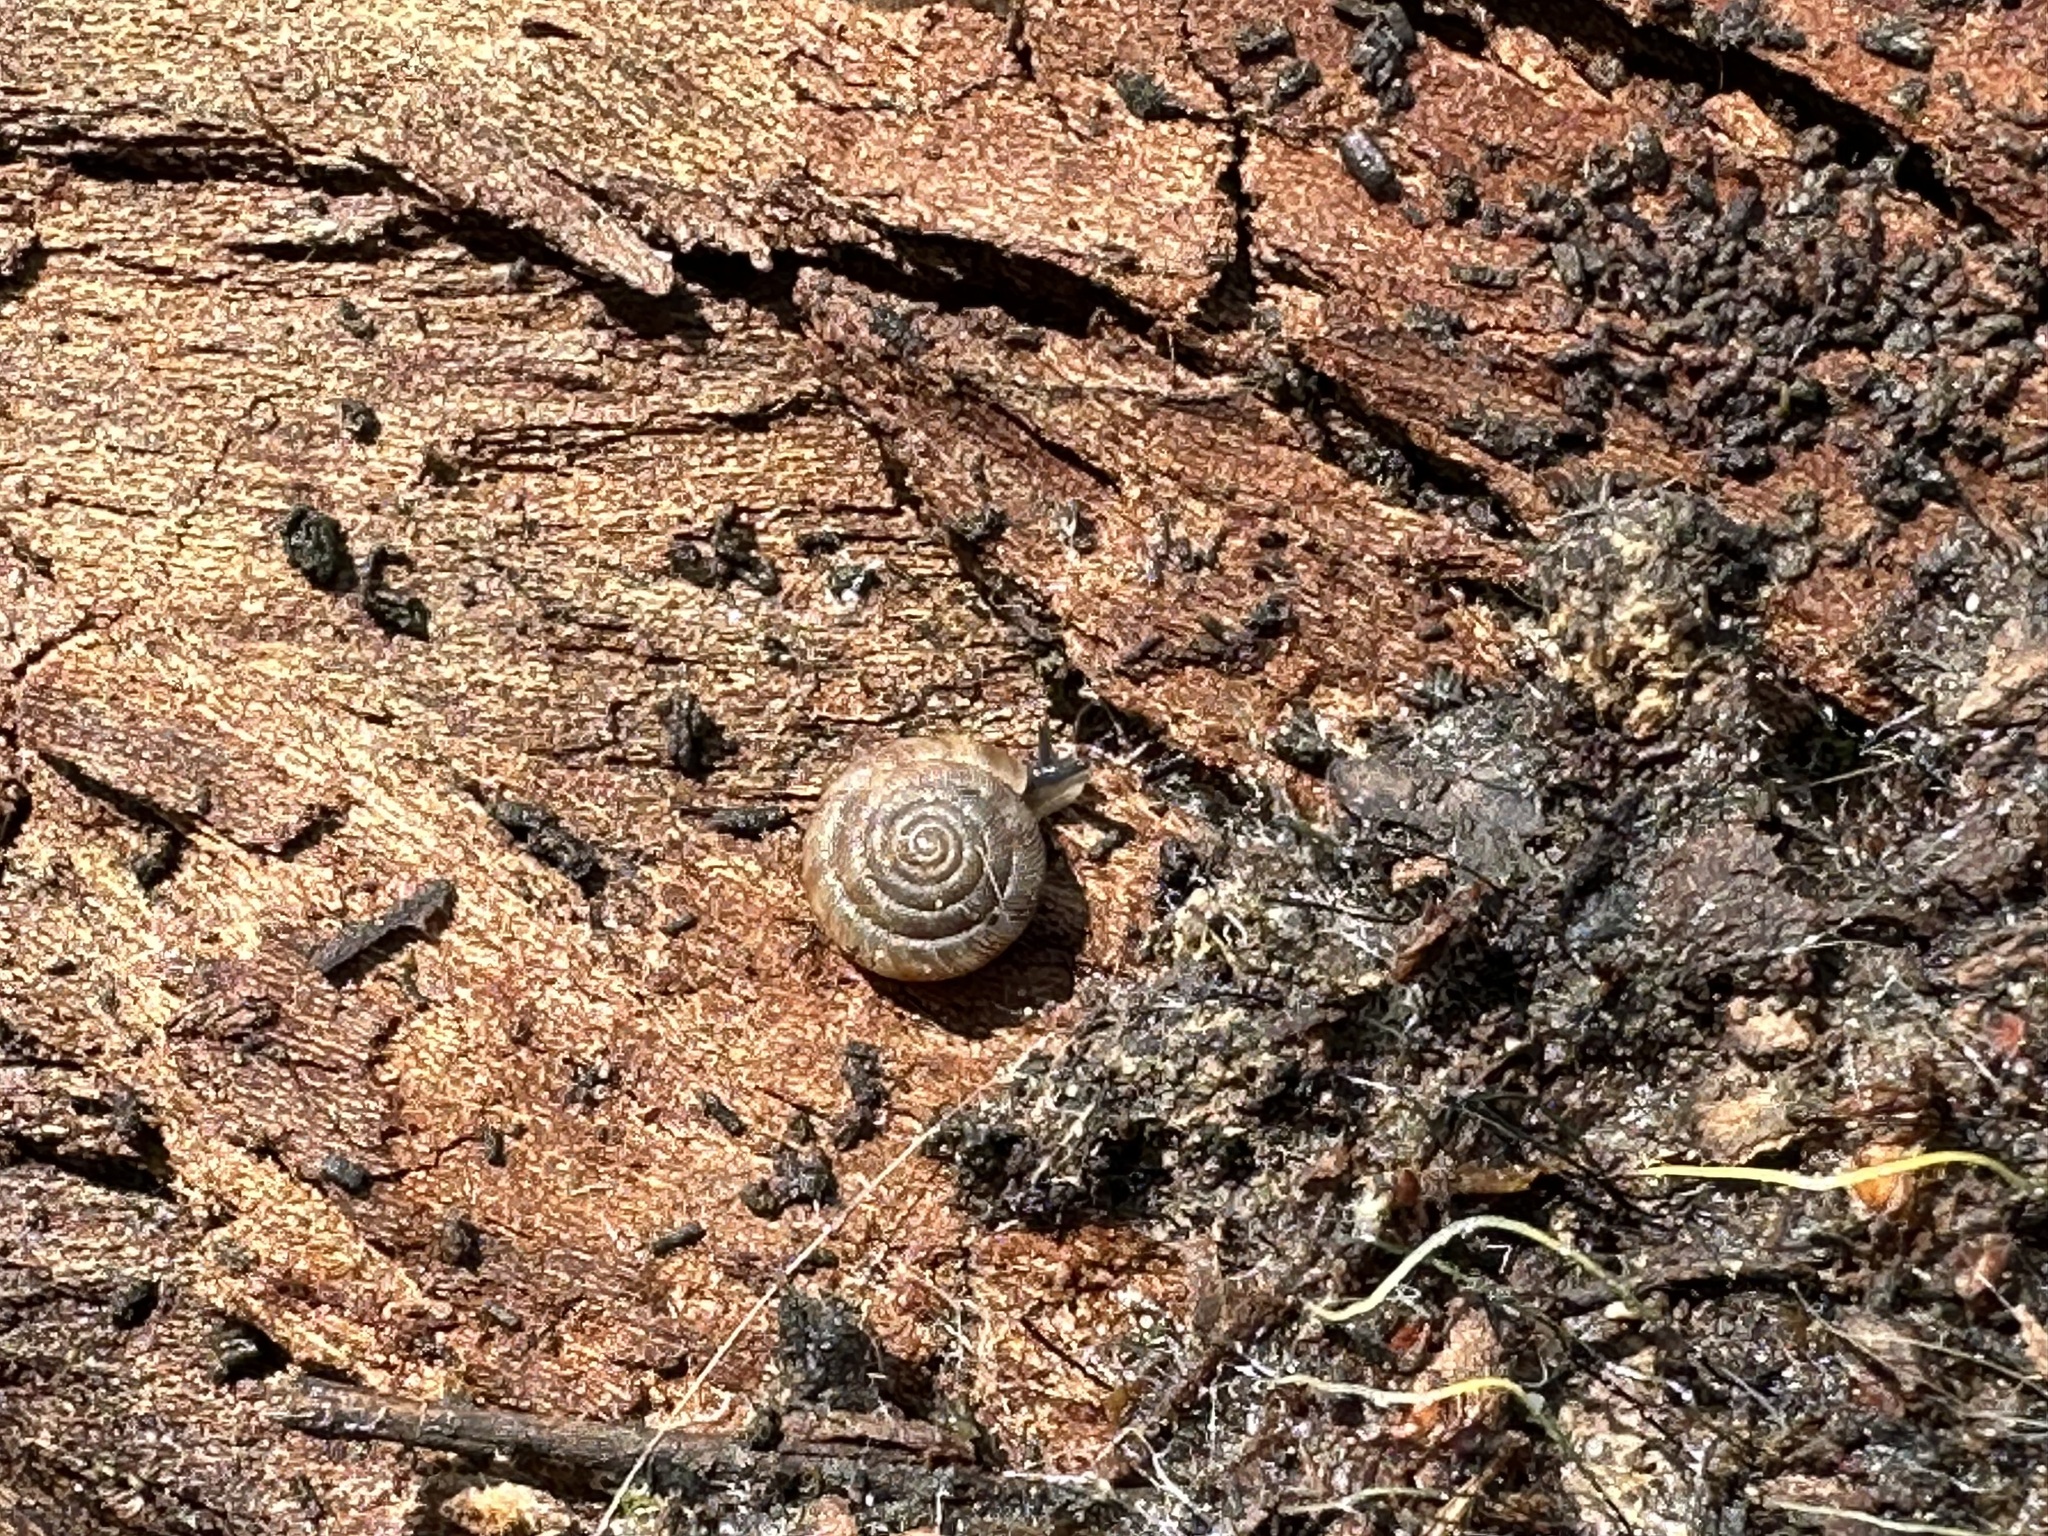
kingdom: Animalia
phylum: Mollusca
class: Gastropoda
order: Stylommatophora
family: Discidae
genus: Discus
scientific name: Discus rotundatus
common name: Rounded snail
